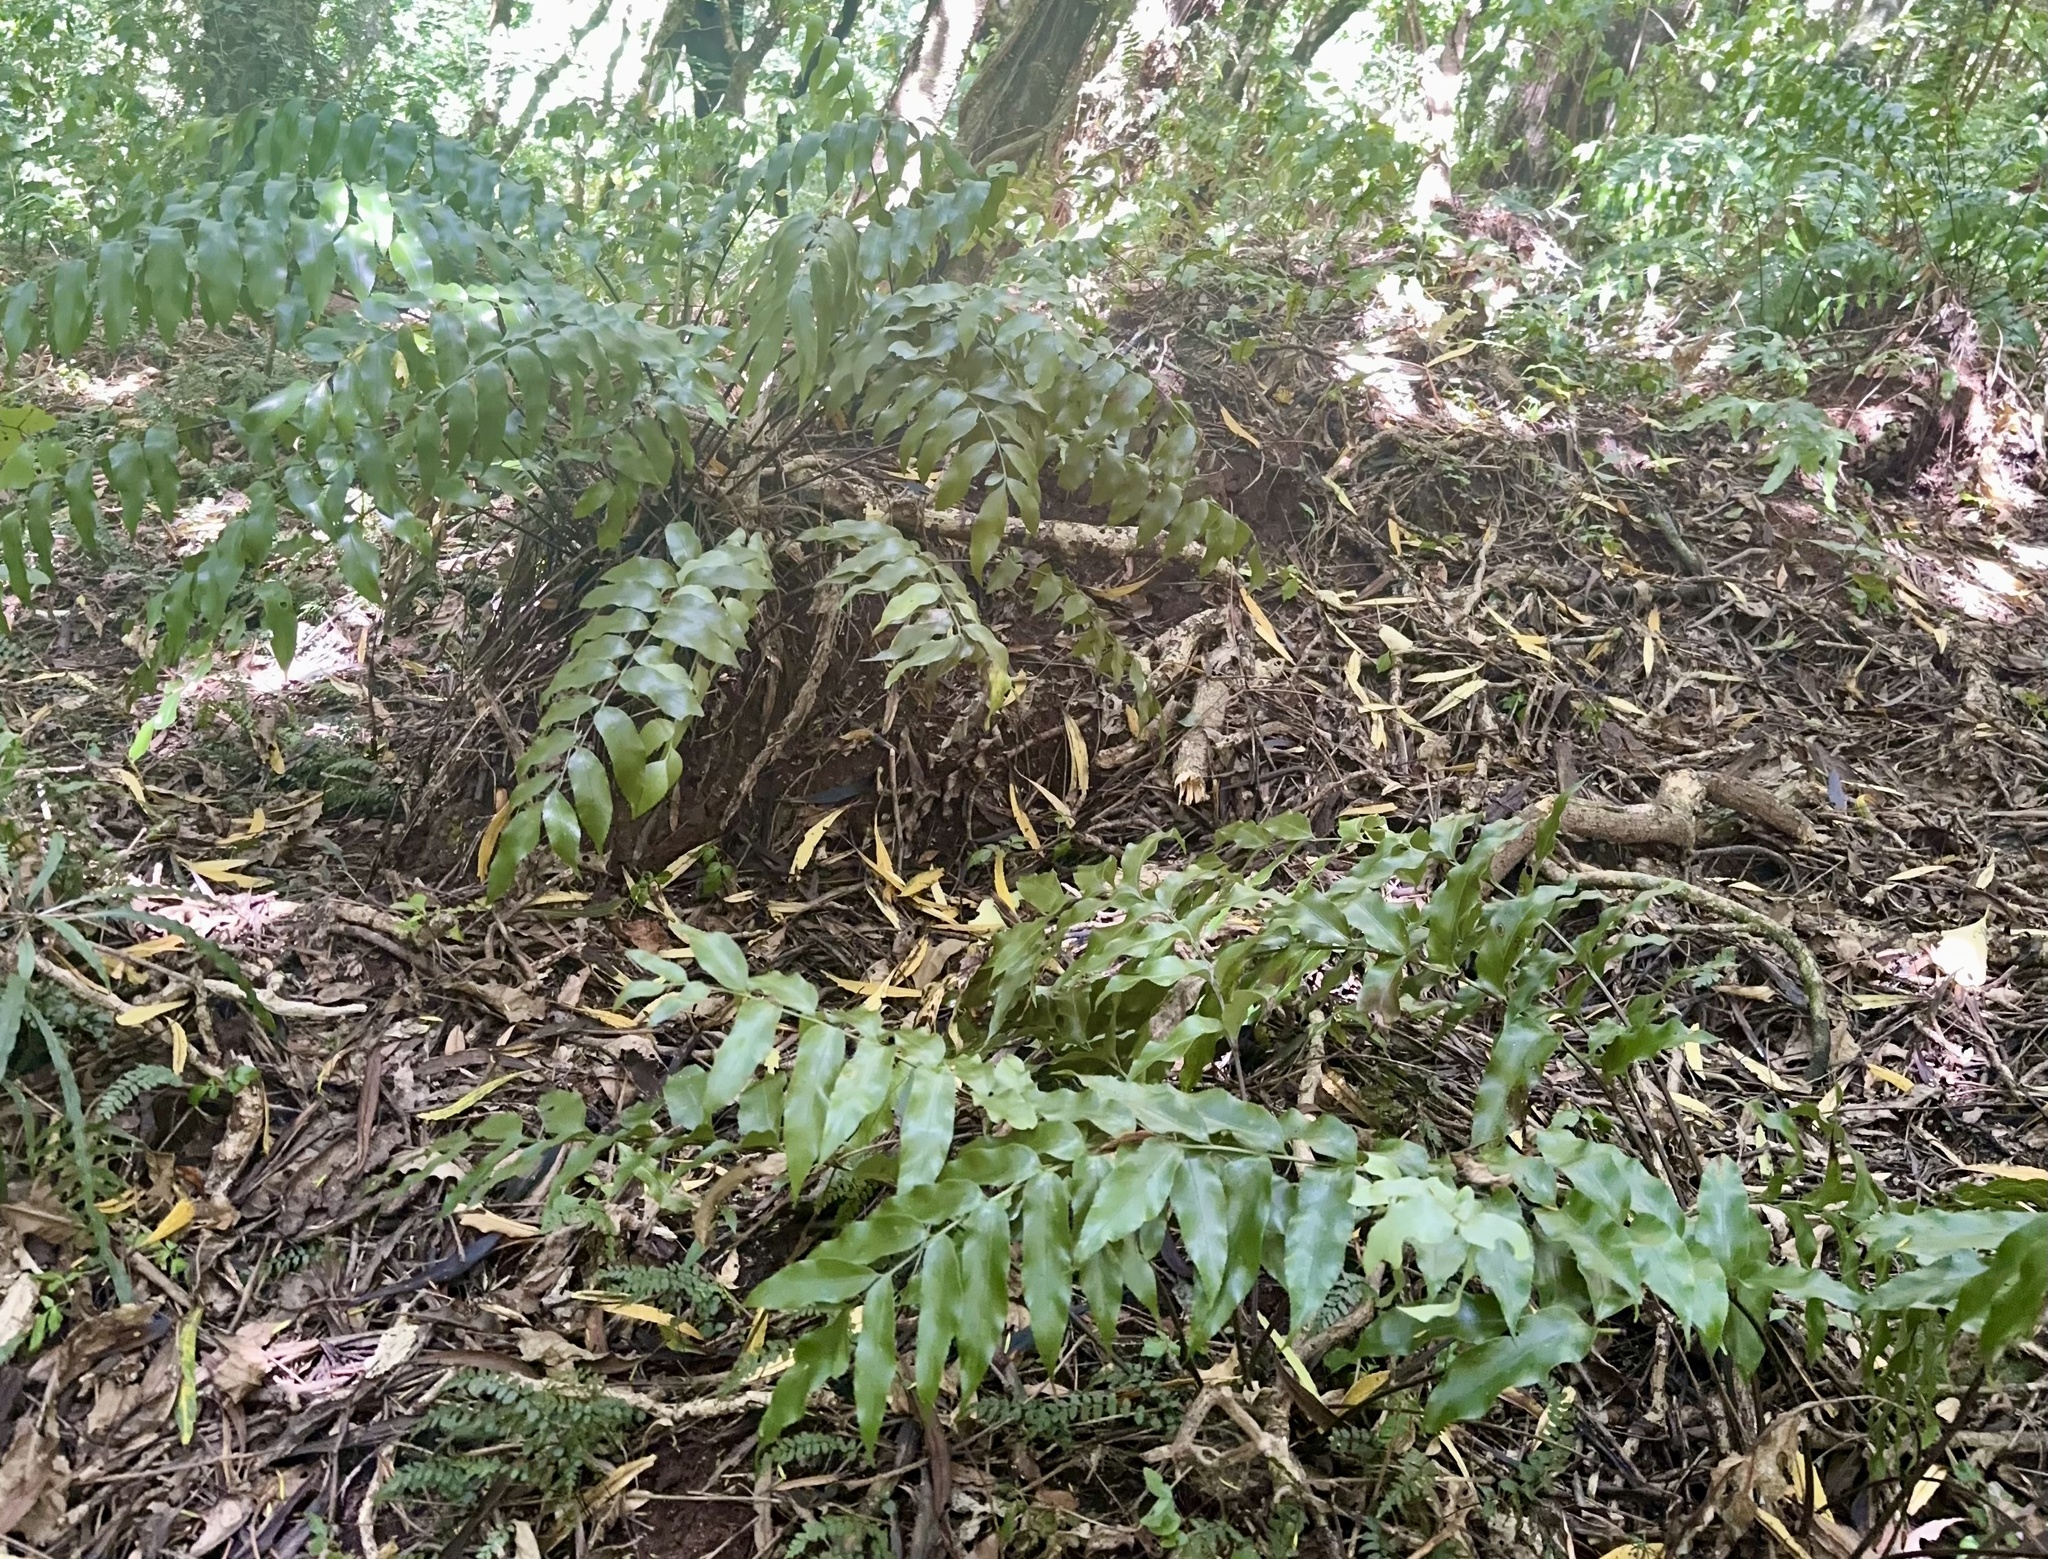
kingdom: Plantae
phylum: Tracheophyta
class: Polypodiopsida
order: Polypodiales
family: Aspleniaceae
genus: Asplenium
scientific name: Asplenium oblongifolium
